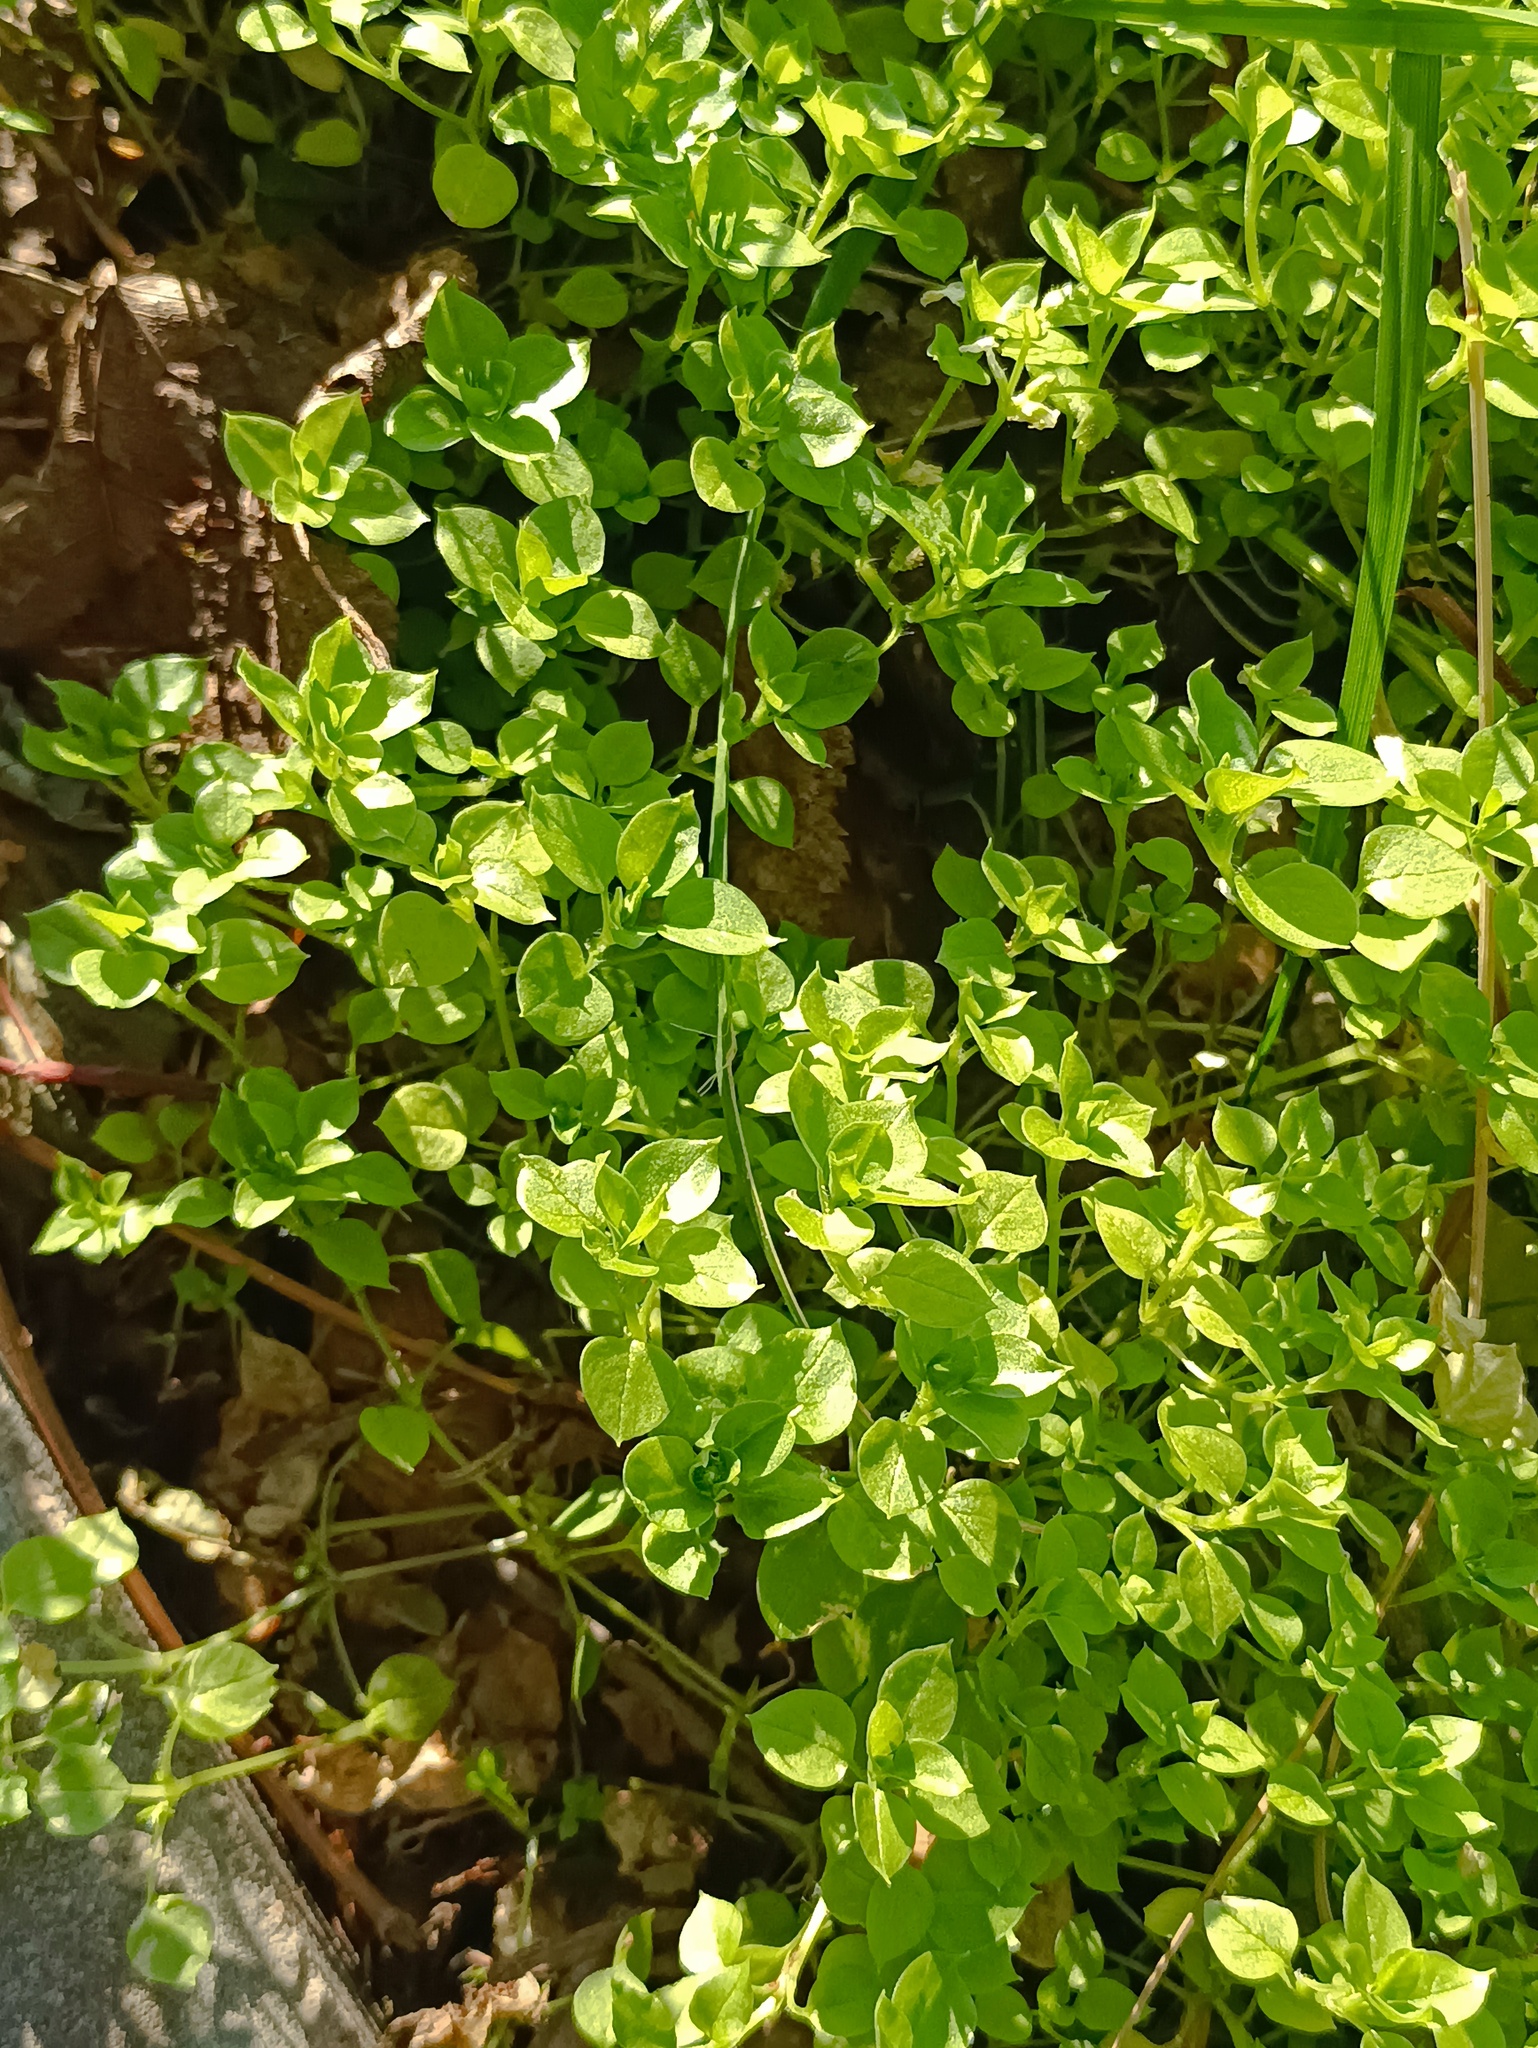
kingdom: Plantae
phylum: Tracheophyta
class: Magnoliopsida
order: Caryophyllales
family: Caryophyllaceae
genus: Stellaria
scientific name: Stellaria media
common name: Common chickweed
